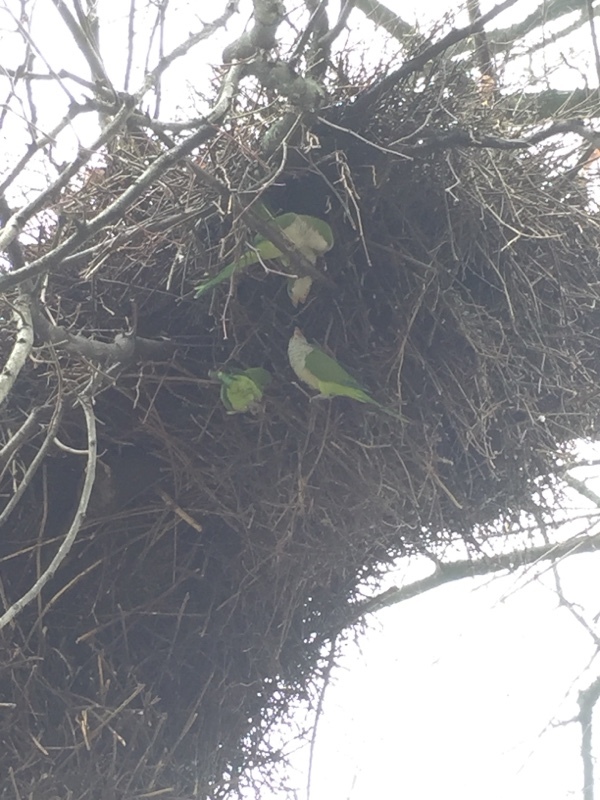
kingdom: Animalia
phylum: Chordata
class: Aves
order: Psittaciformes
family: Psittacidae
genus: Myiopsitta
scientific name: Myiopsitta monachus
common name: Monk parakeet
